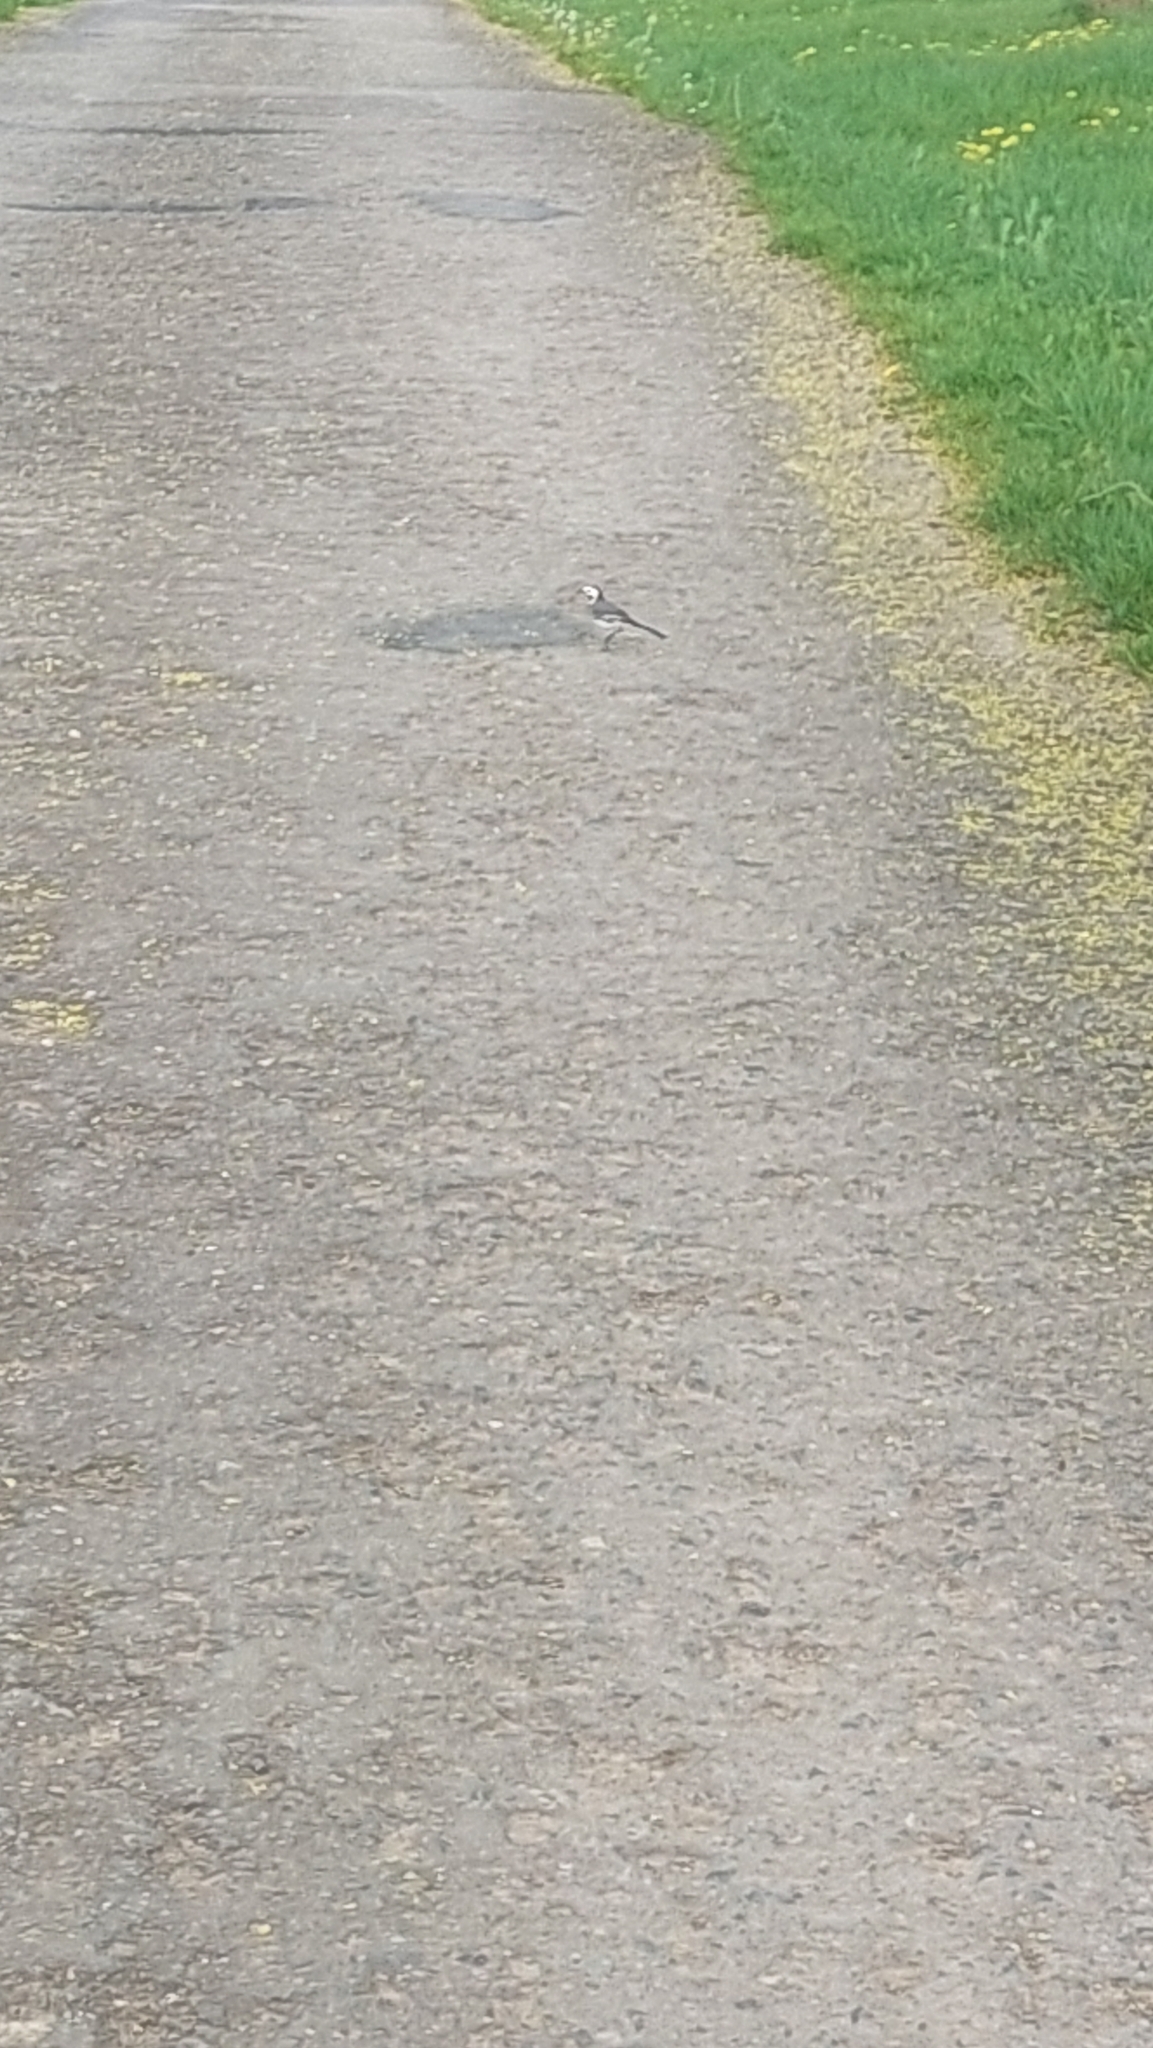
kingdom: Animalia
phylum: Chordata
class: Aves
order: Passeriformes
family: Motacillidae
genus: Motacilla
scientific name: Motacilla alba
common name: White wagtail
